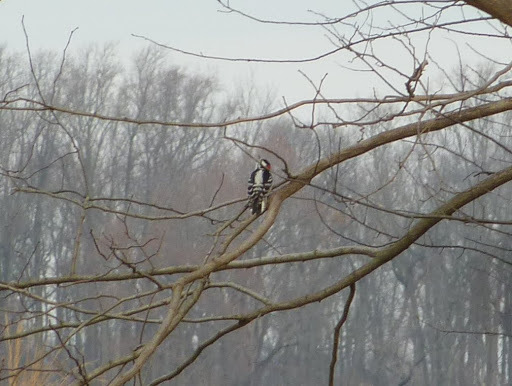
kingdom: Animalia
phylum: Chordata
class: Aves
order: Piciformes
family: Picidae
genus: Dryobates
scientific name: Dryobates pubescens
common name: Downy woodpecker
